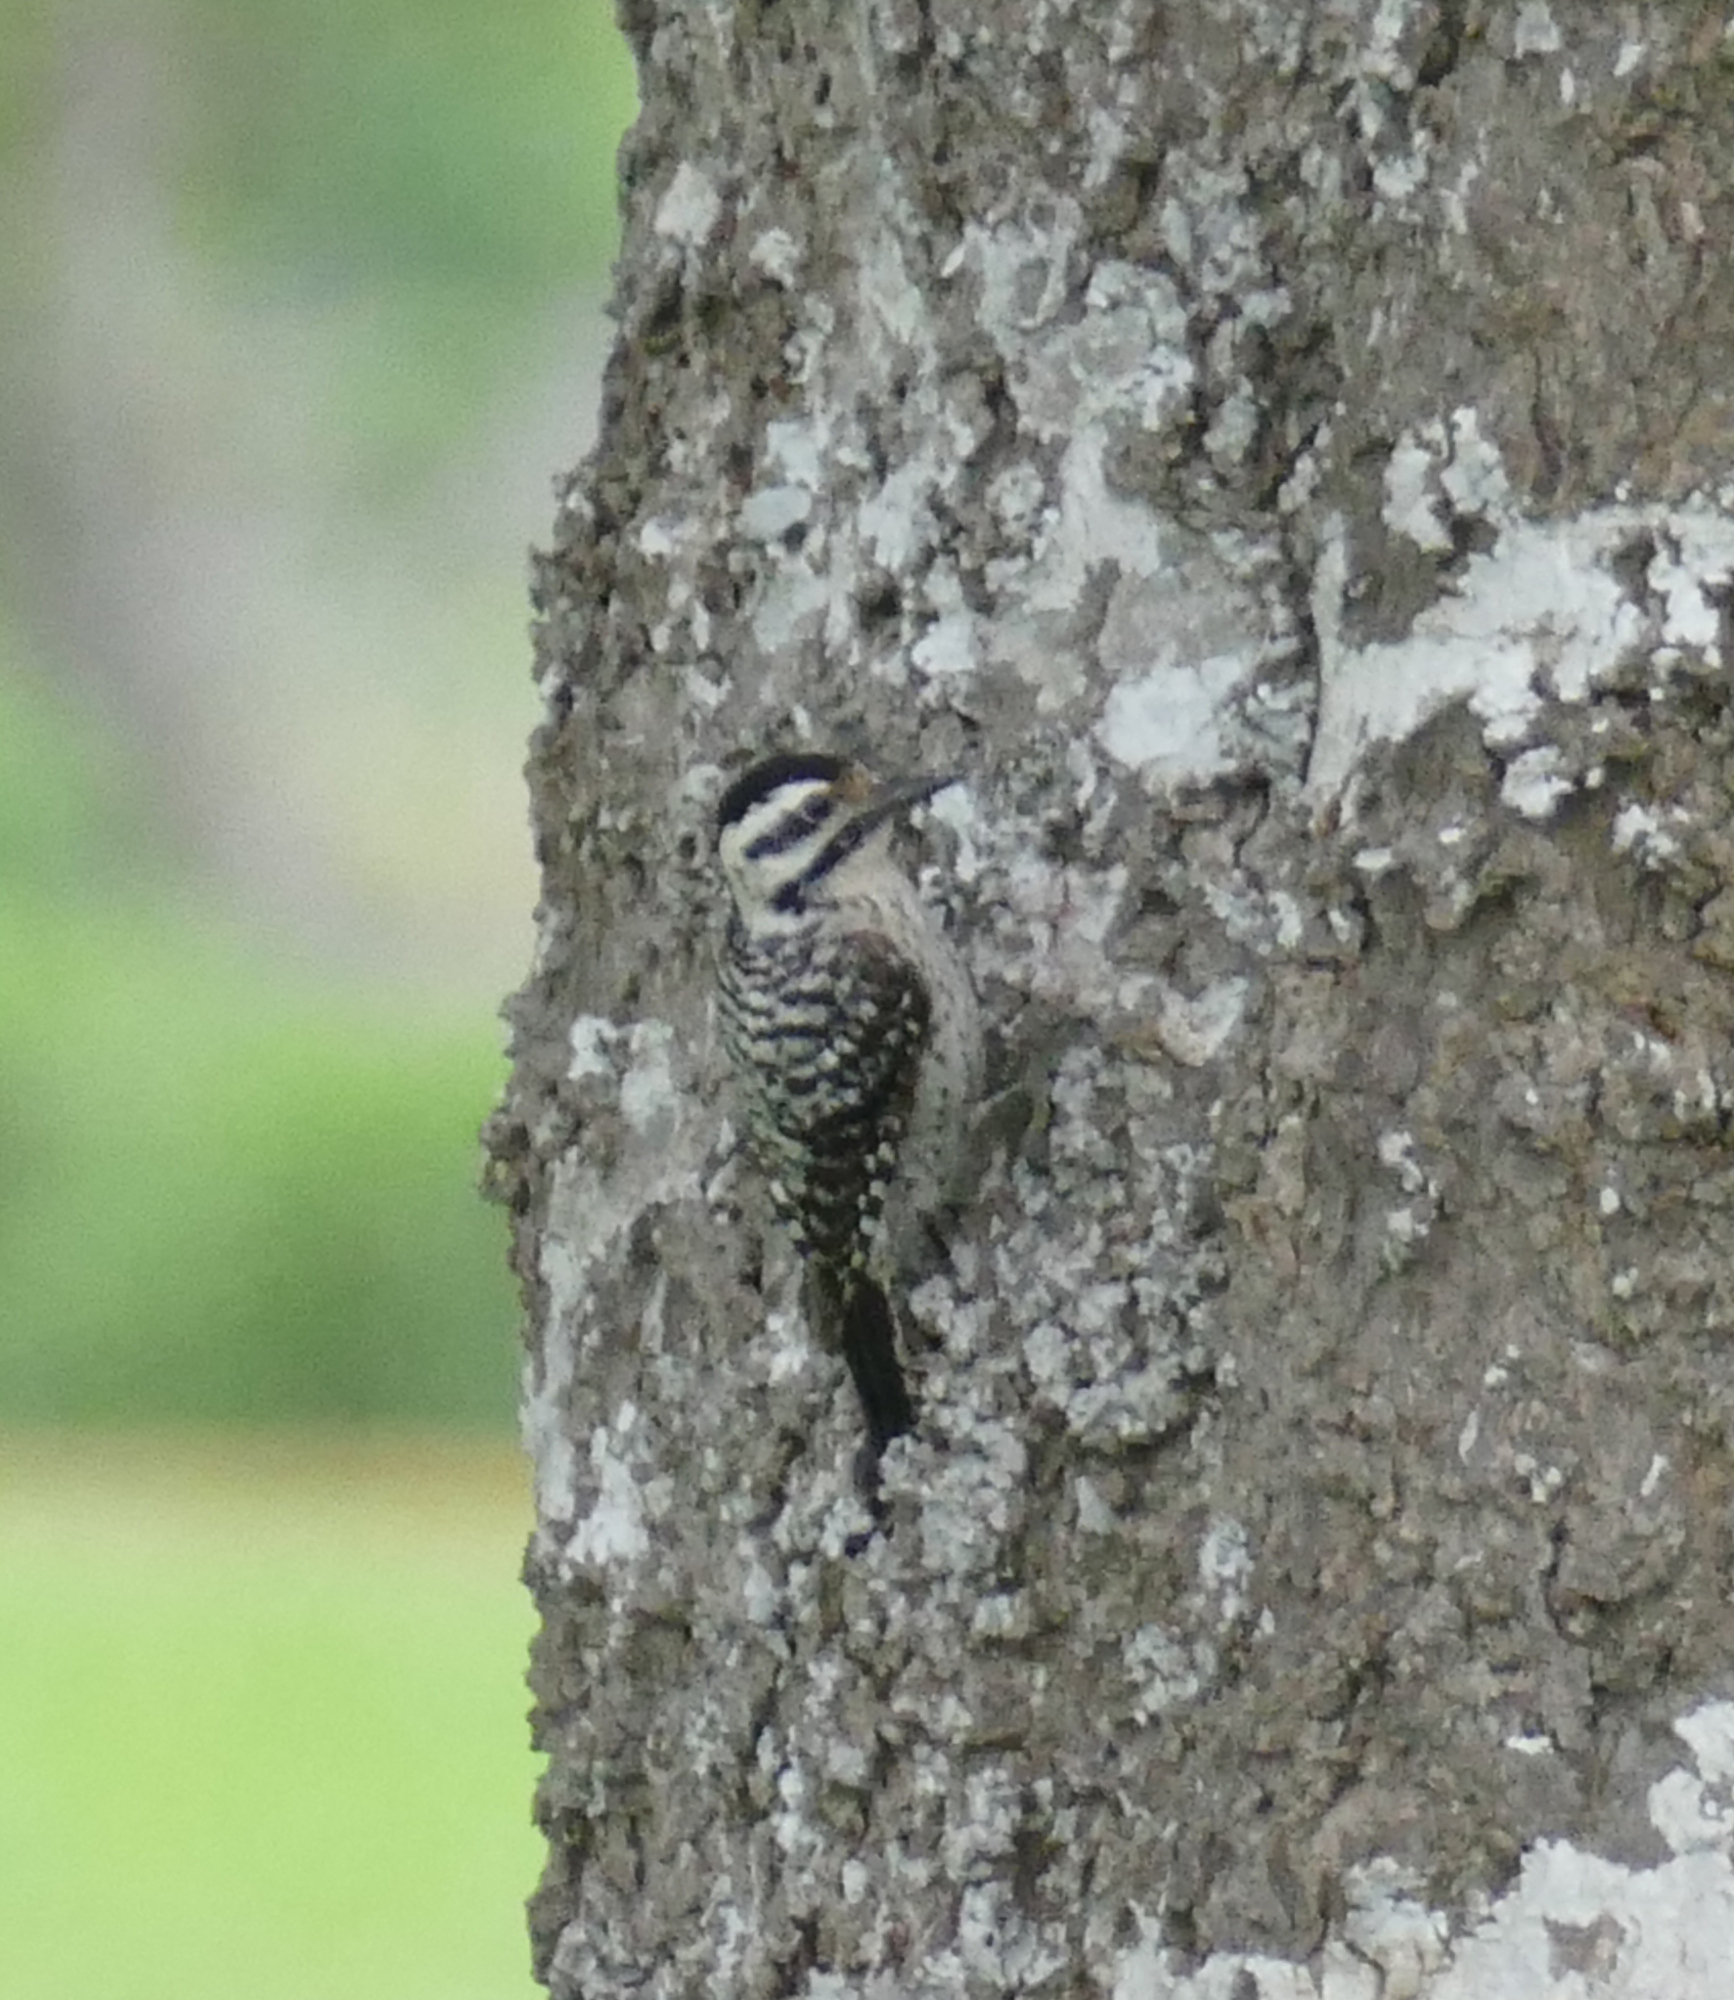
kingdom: Animalia
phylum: Chordata
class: Aves
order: Piciformes
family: Picidae
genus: Dryobates
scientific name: Dryobates scalaris
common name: Ladder-backed woodpecker
